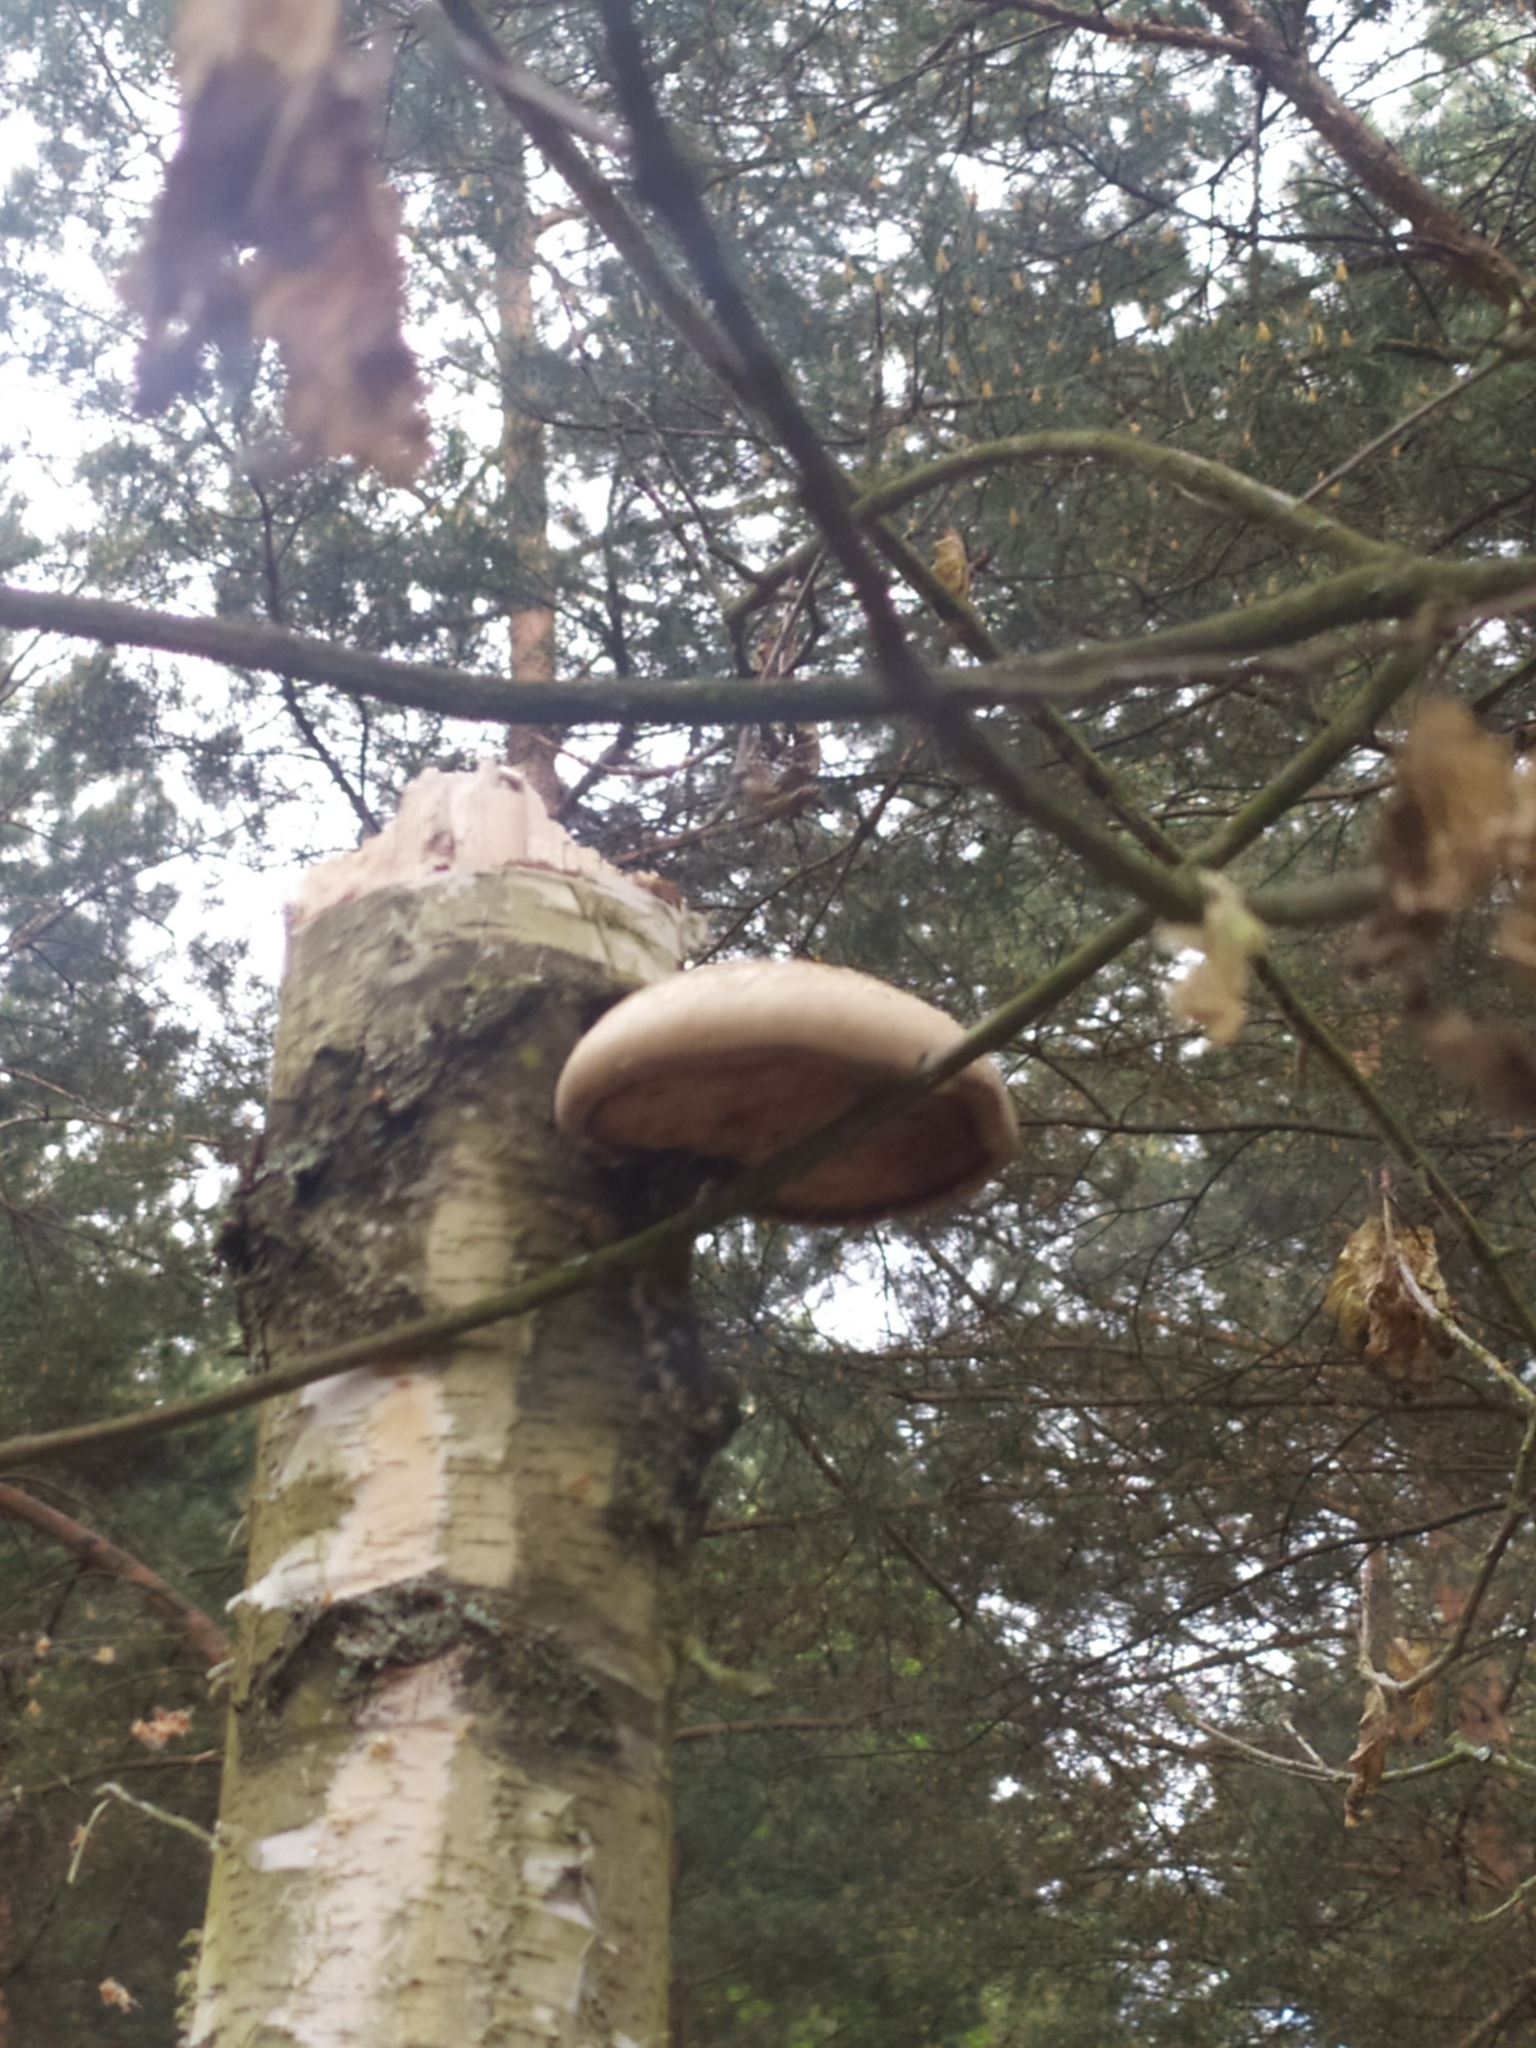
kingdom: Fungi
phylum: Basidiomycota
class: Agaricomycetes
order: Polyporales
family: Fomitopsidaceae
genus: Fomitopsis
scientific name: Fomitopsis betulina
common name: Birch polypore
